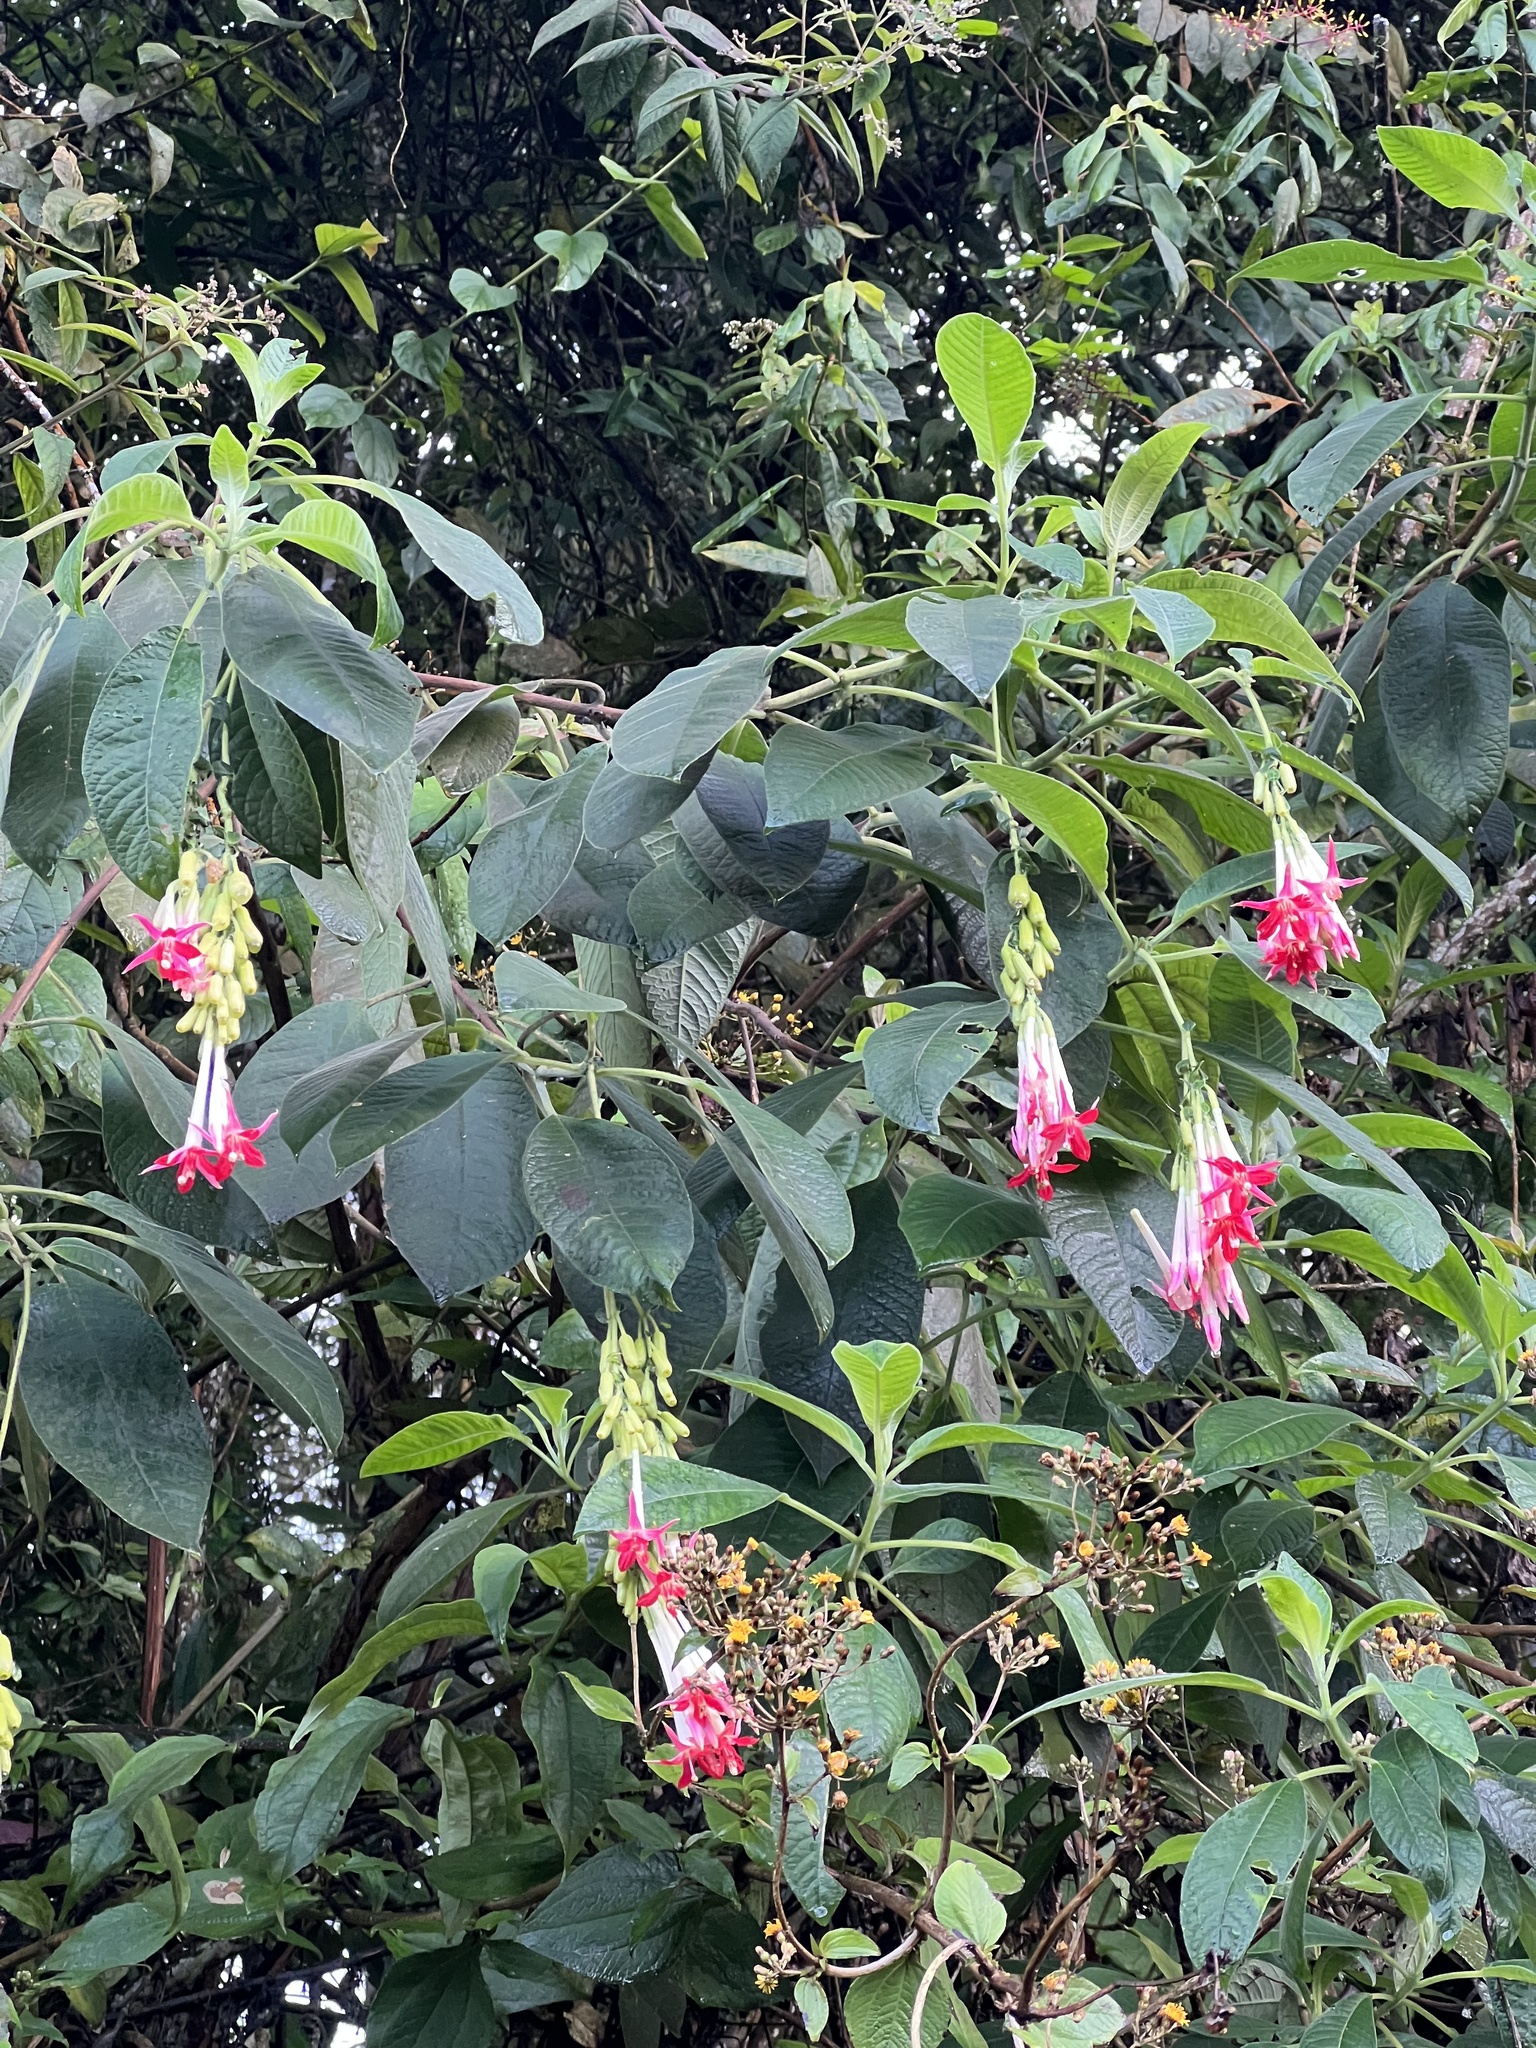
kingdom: Plantae
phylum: Tracheophyta
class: Magnoliopsida
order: Myrtales
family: Onagraceae
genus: Fuchsia
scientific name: Fuchsia boliviana
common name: Bolivian fuchsia
